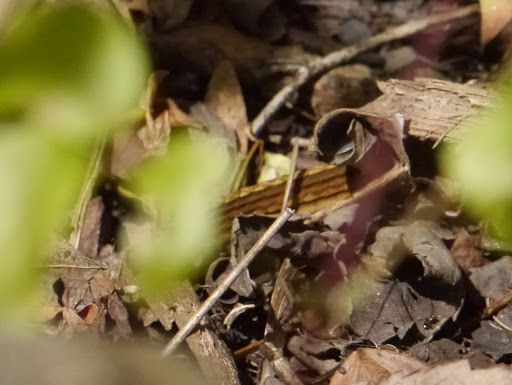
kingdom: Animalia
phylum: Chordata
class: Squamata
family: Colubridae
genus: Thamnophis
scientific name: Thamnophis saurita
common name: Eastern ribbonsnake
